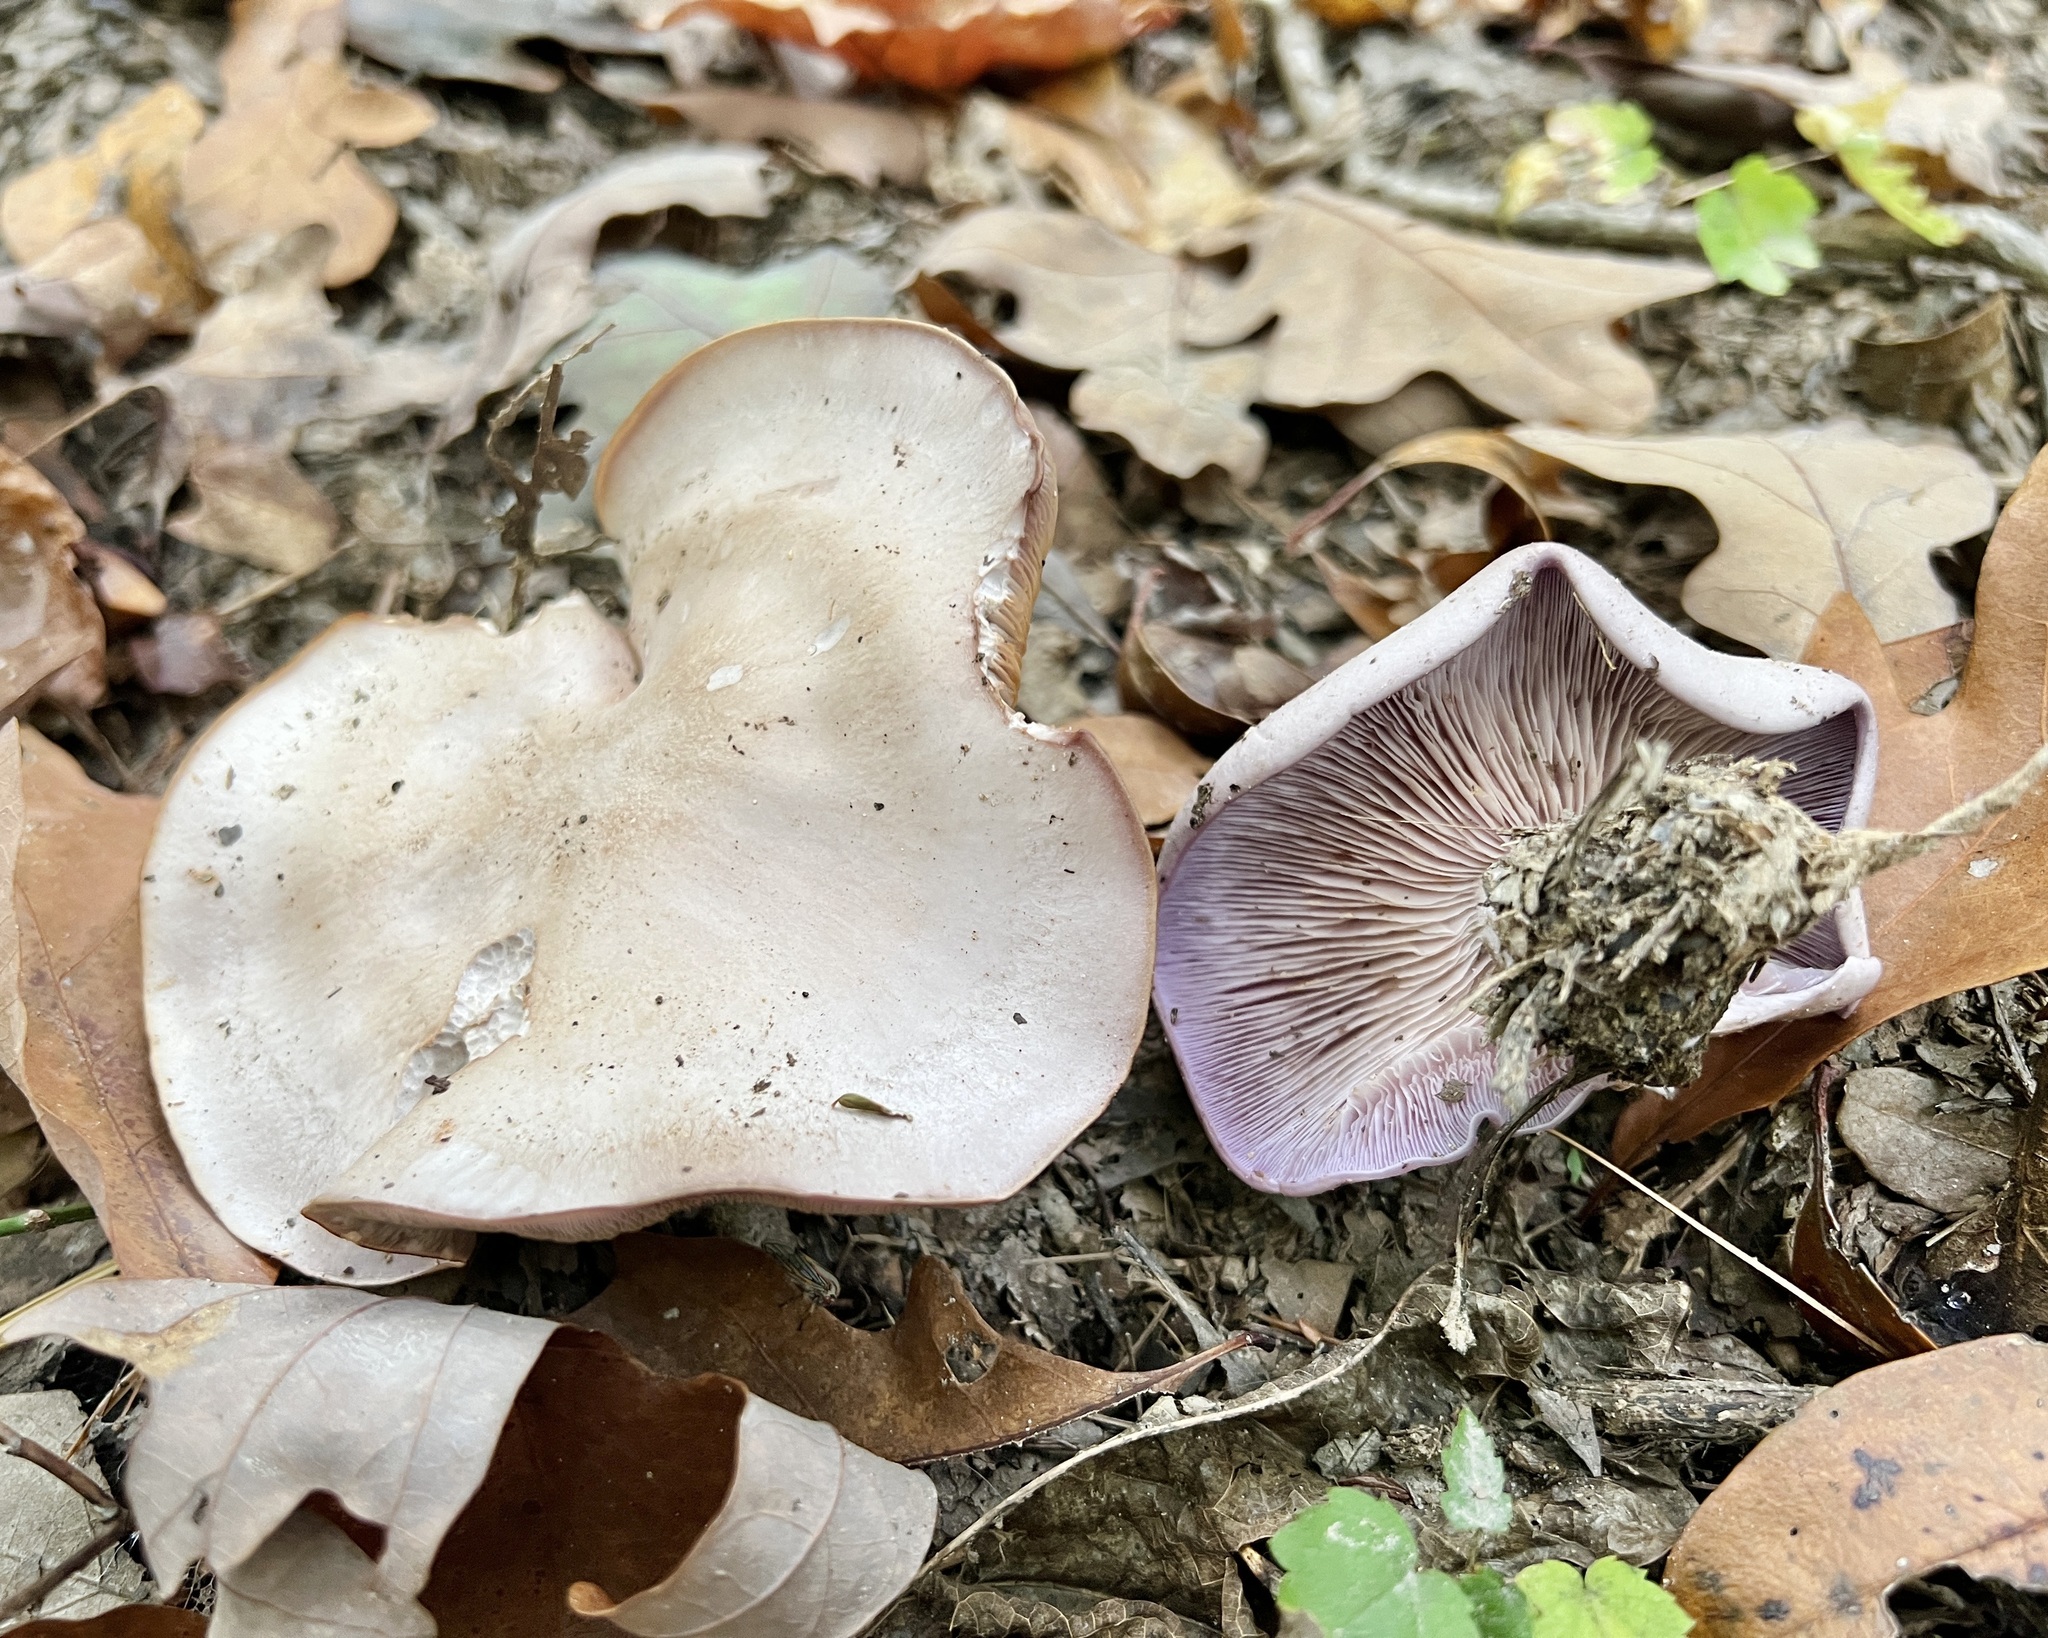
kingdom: Fungi
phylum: Basidiomycota
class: Agaricomycetes
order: Agaricales
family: Tricholomataceae
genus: Collybia
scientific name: Collybia
